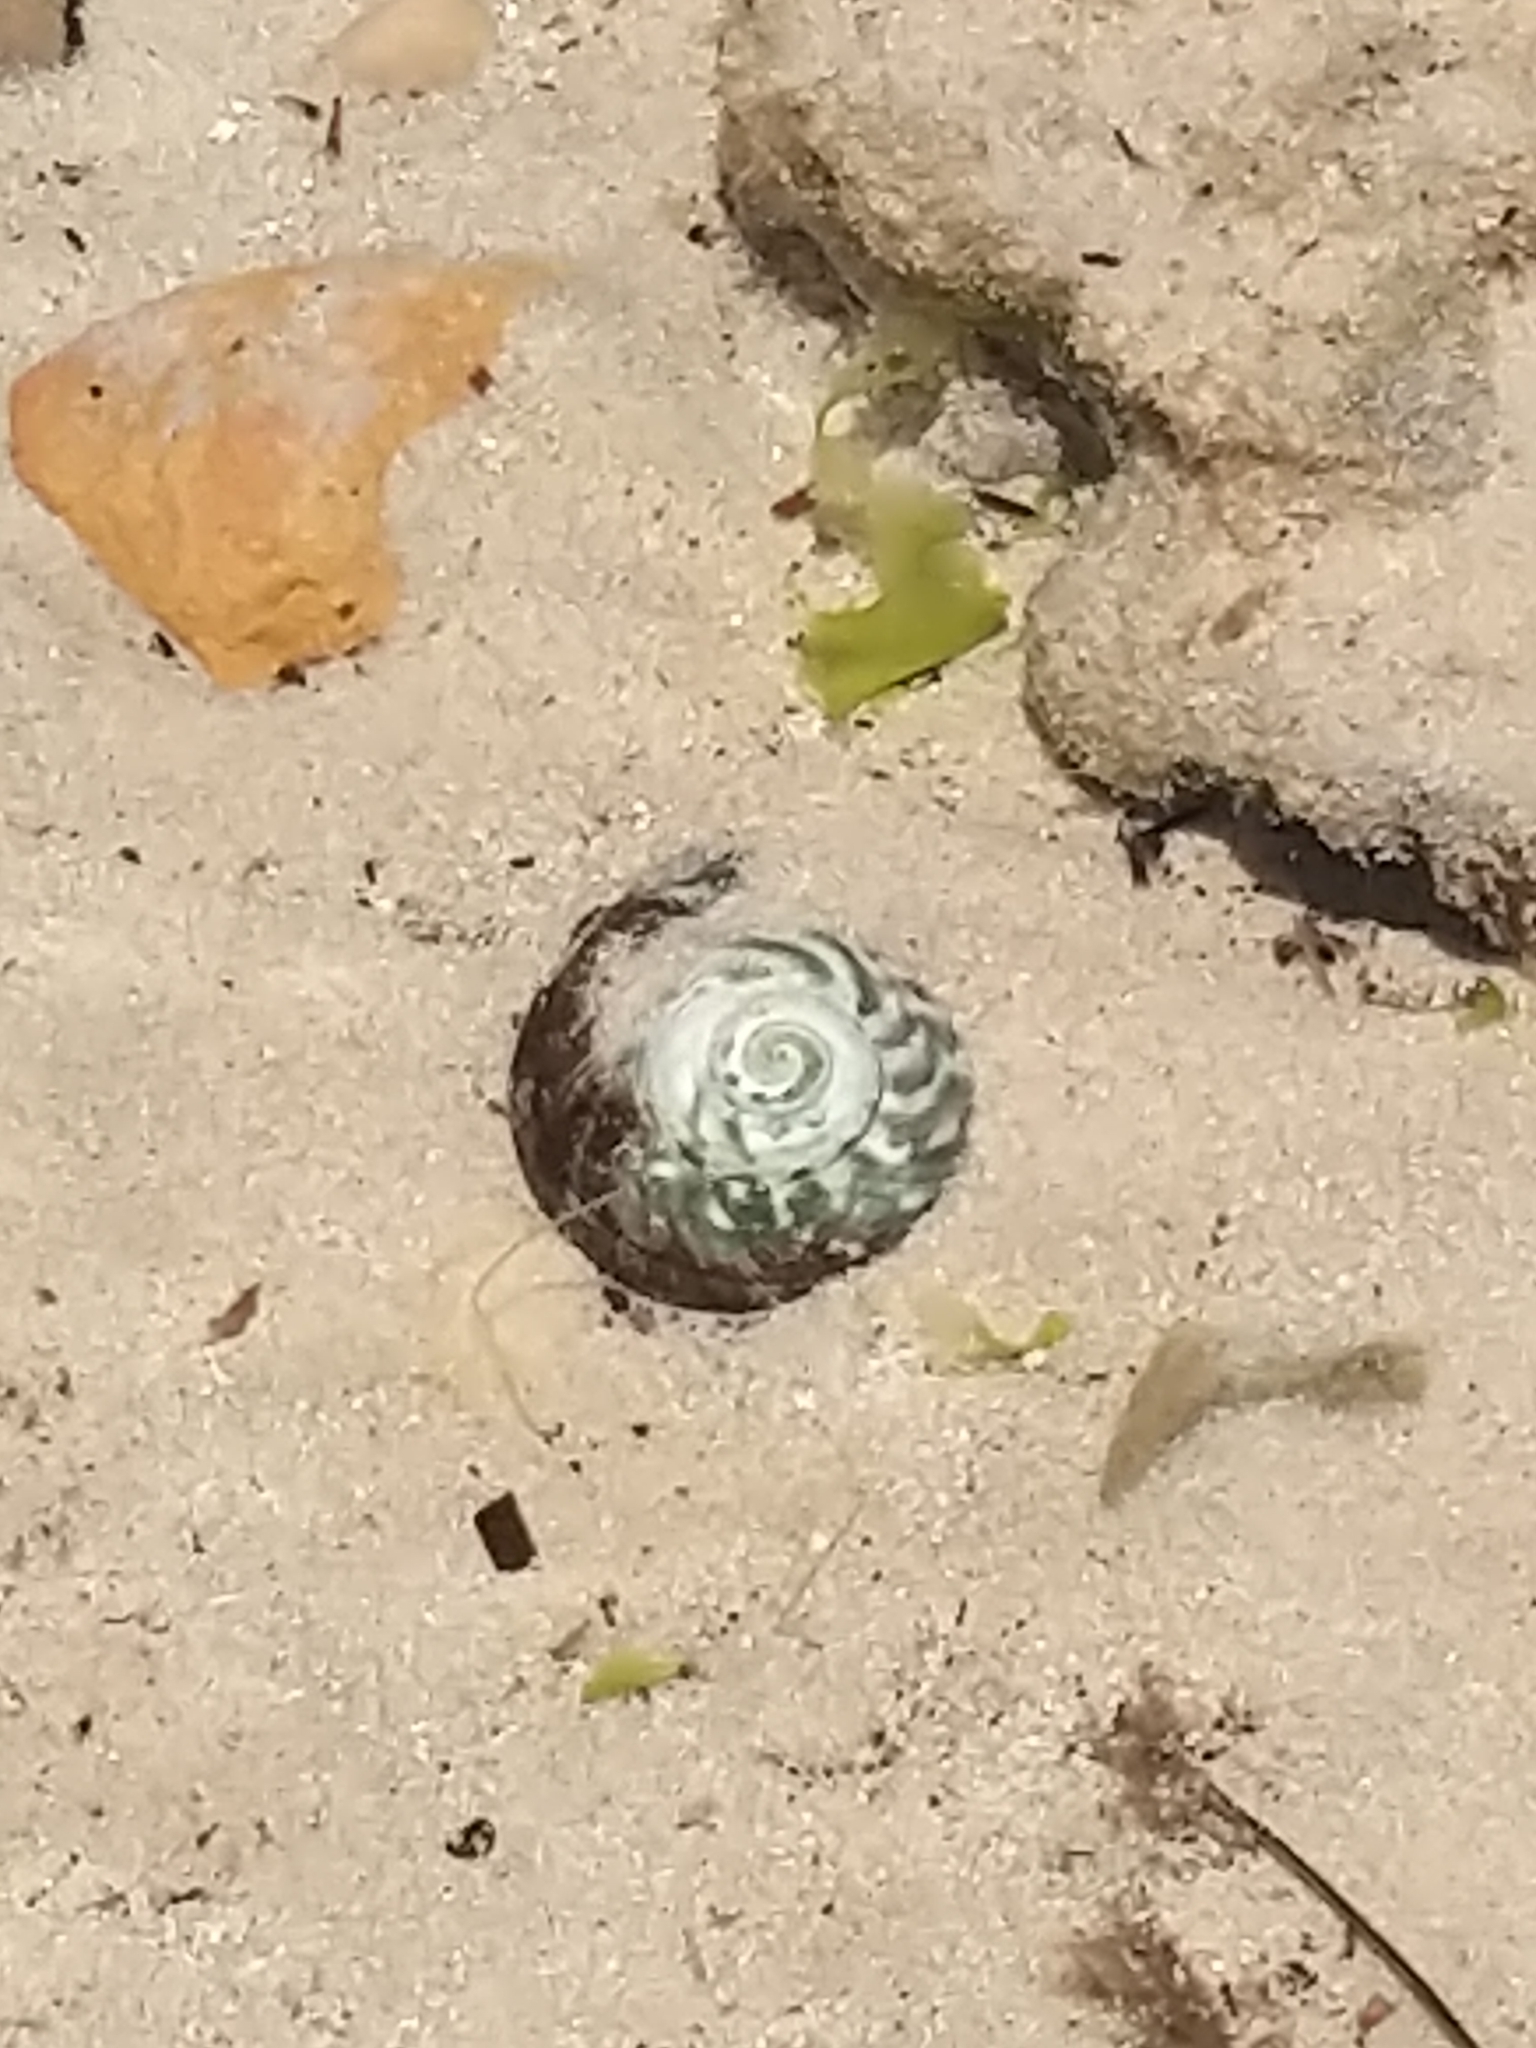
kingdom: Animalia
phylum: Mollusca
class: Gastropoda
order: Trochida
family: Turbinidae
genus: Lunella
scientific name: Lunella undulata
